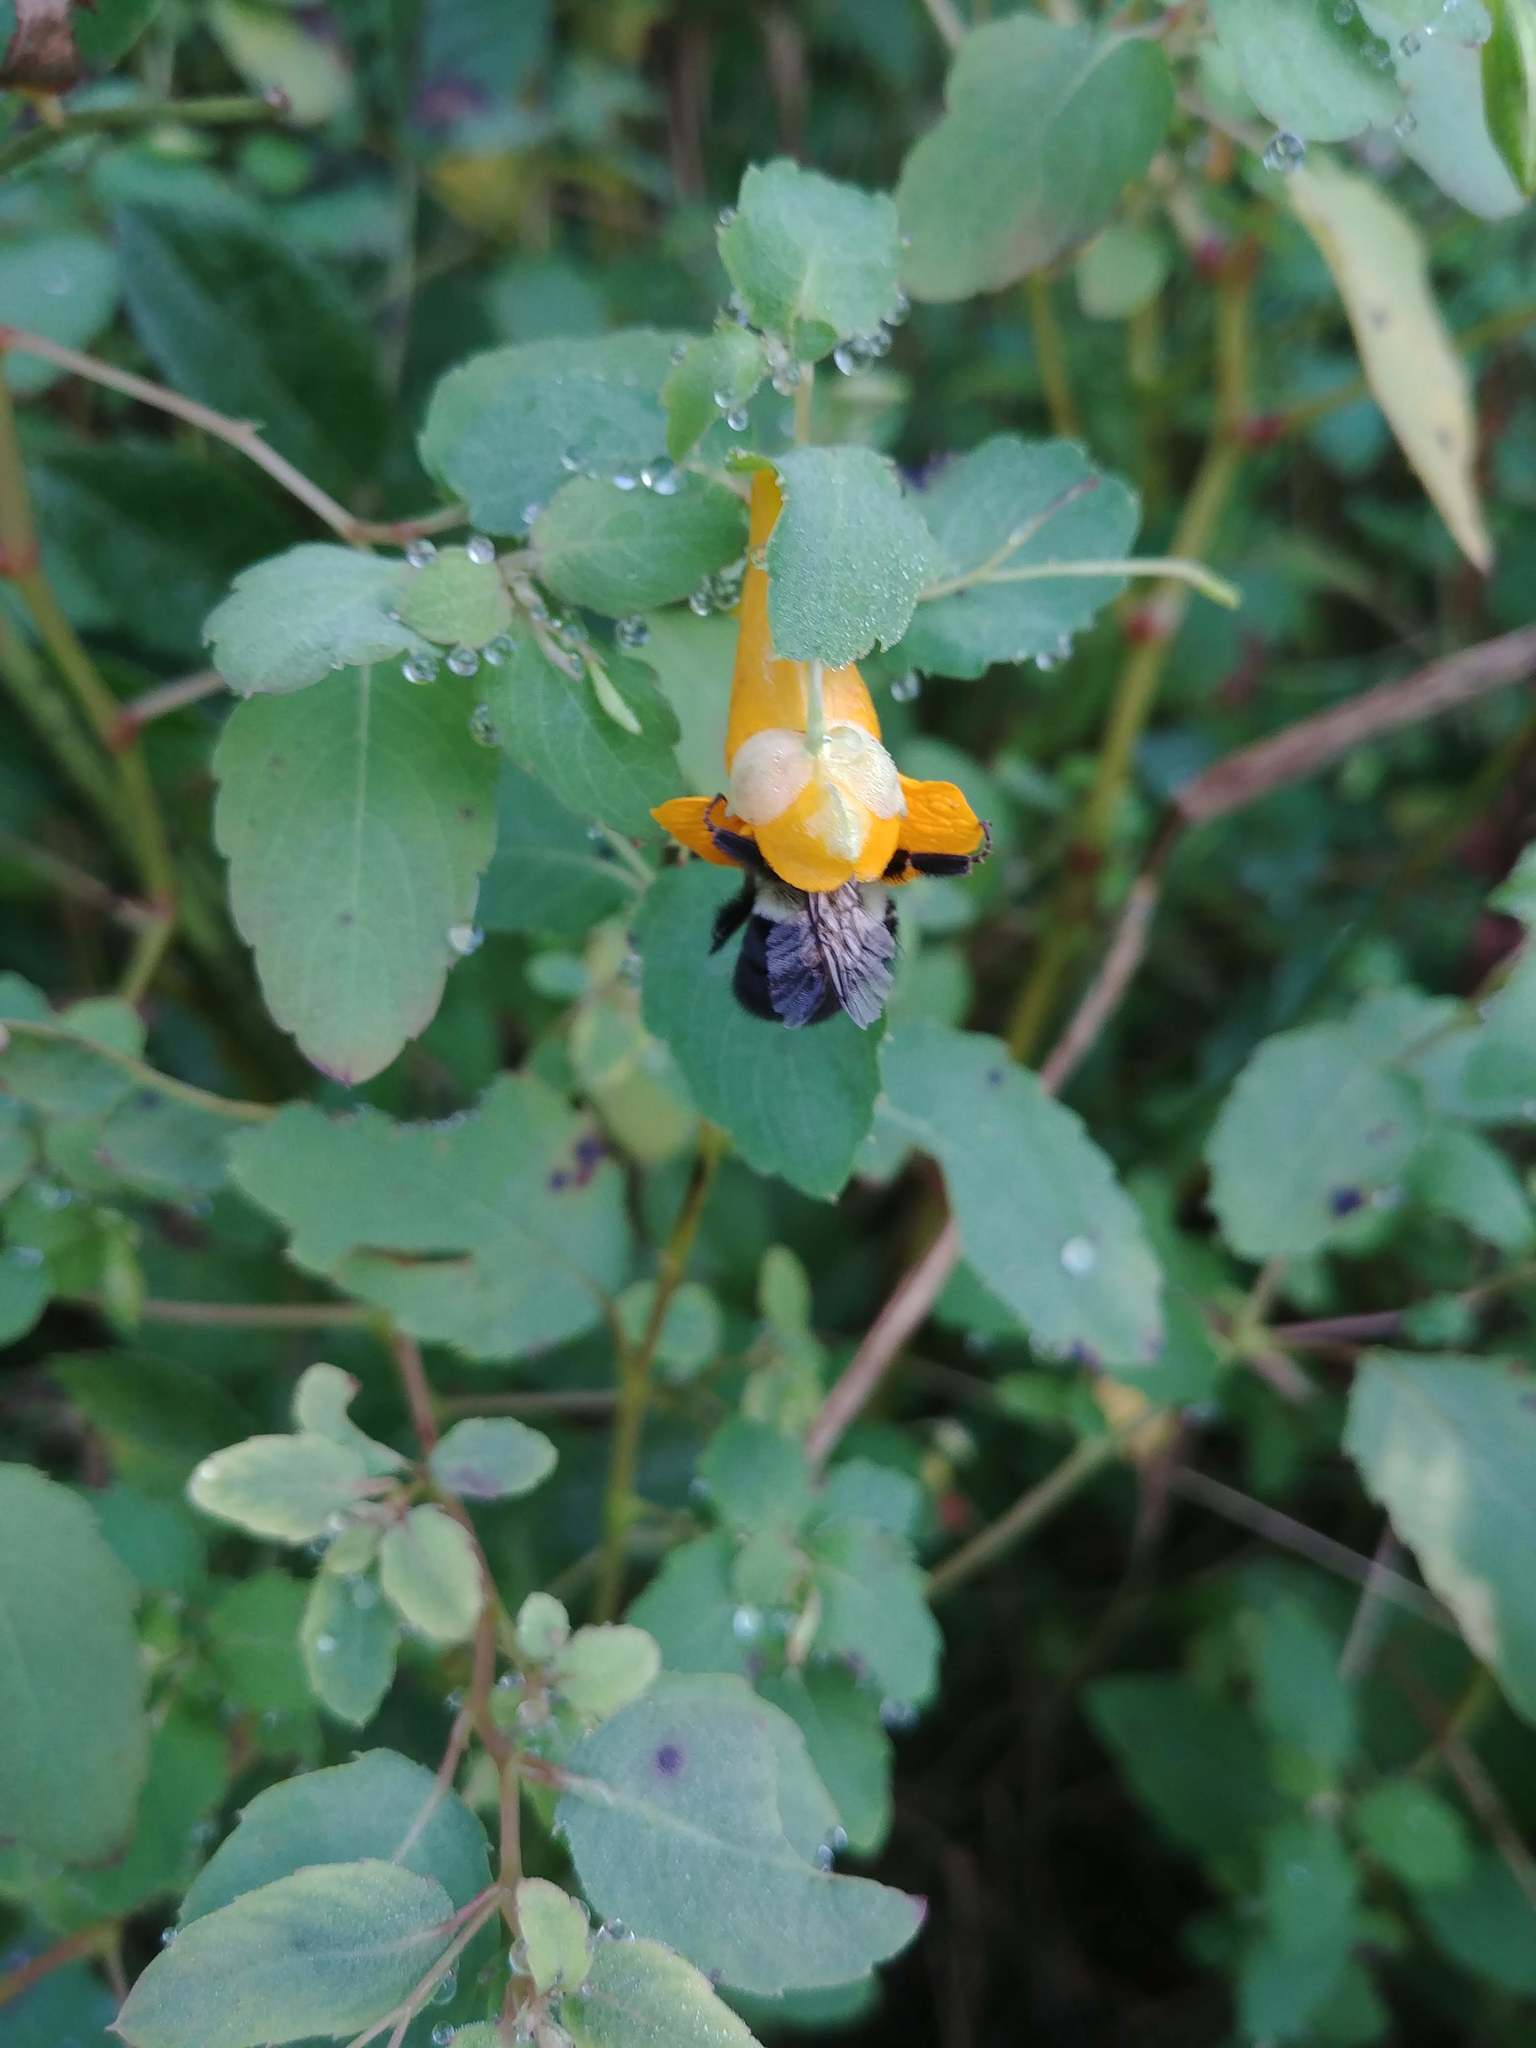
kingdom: Plantae
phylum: Tracheophyta
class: Magnoliopsida
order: Ericales
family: Balsaminaceae
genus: Impatiens
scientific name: Impatiens capensis
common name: Orange balsam
